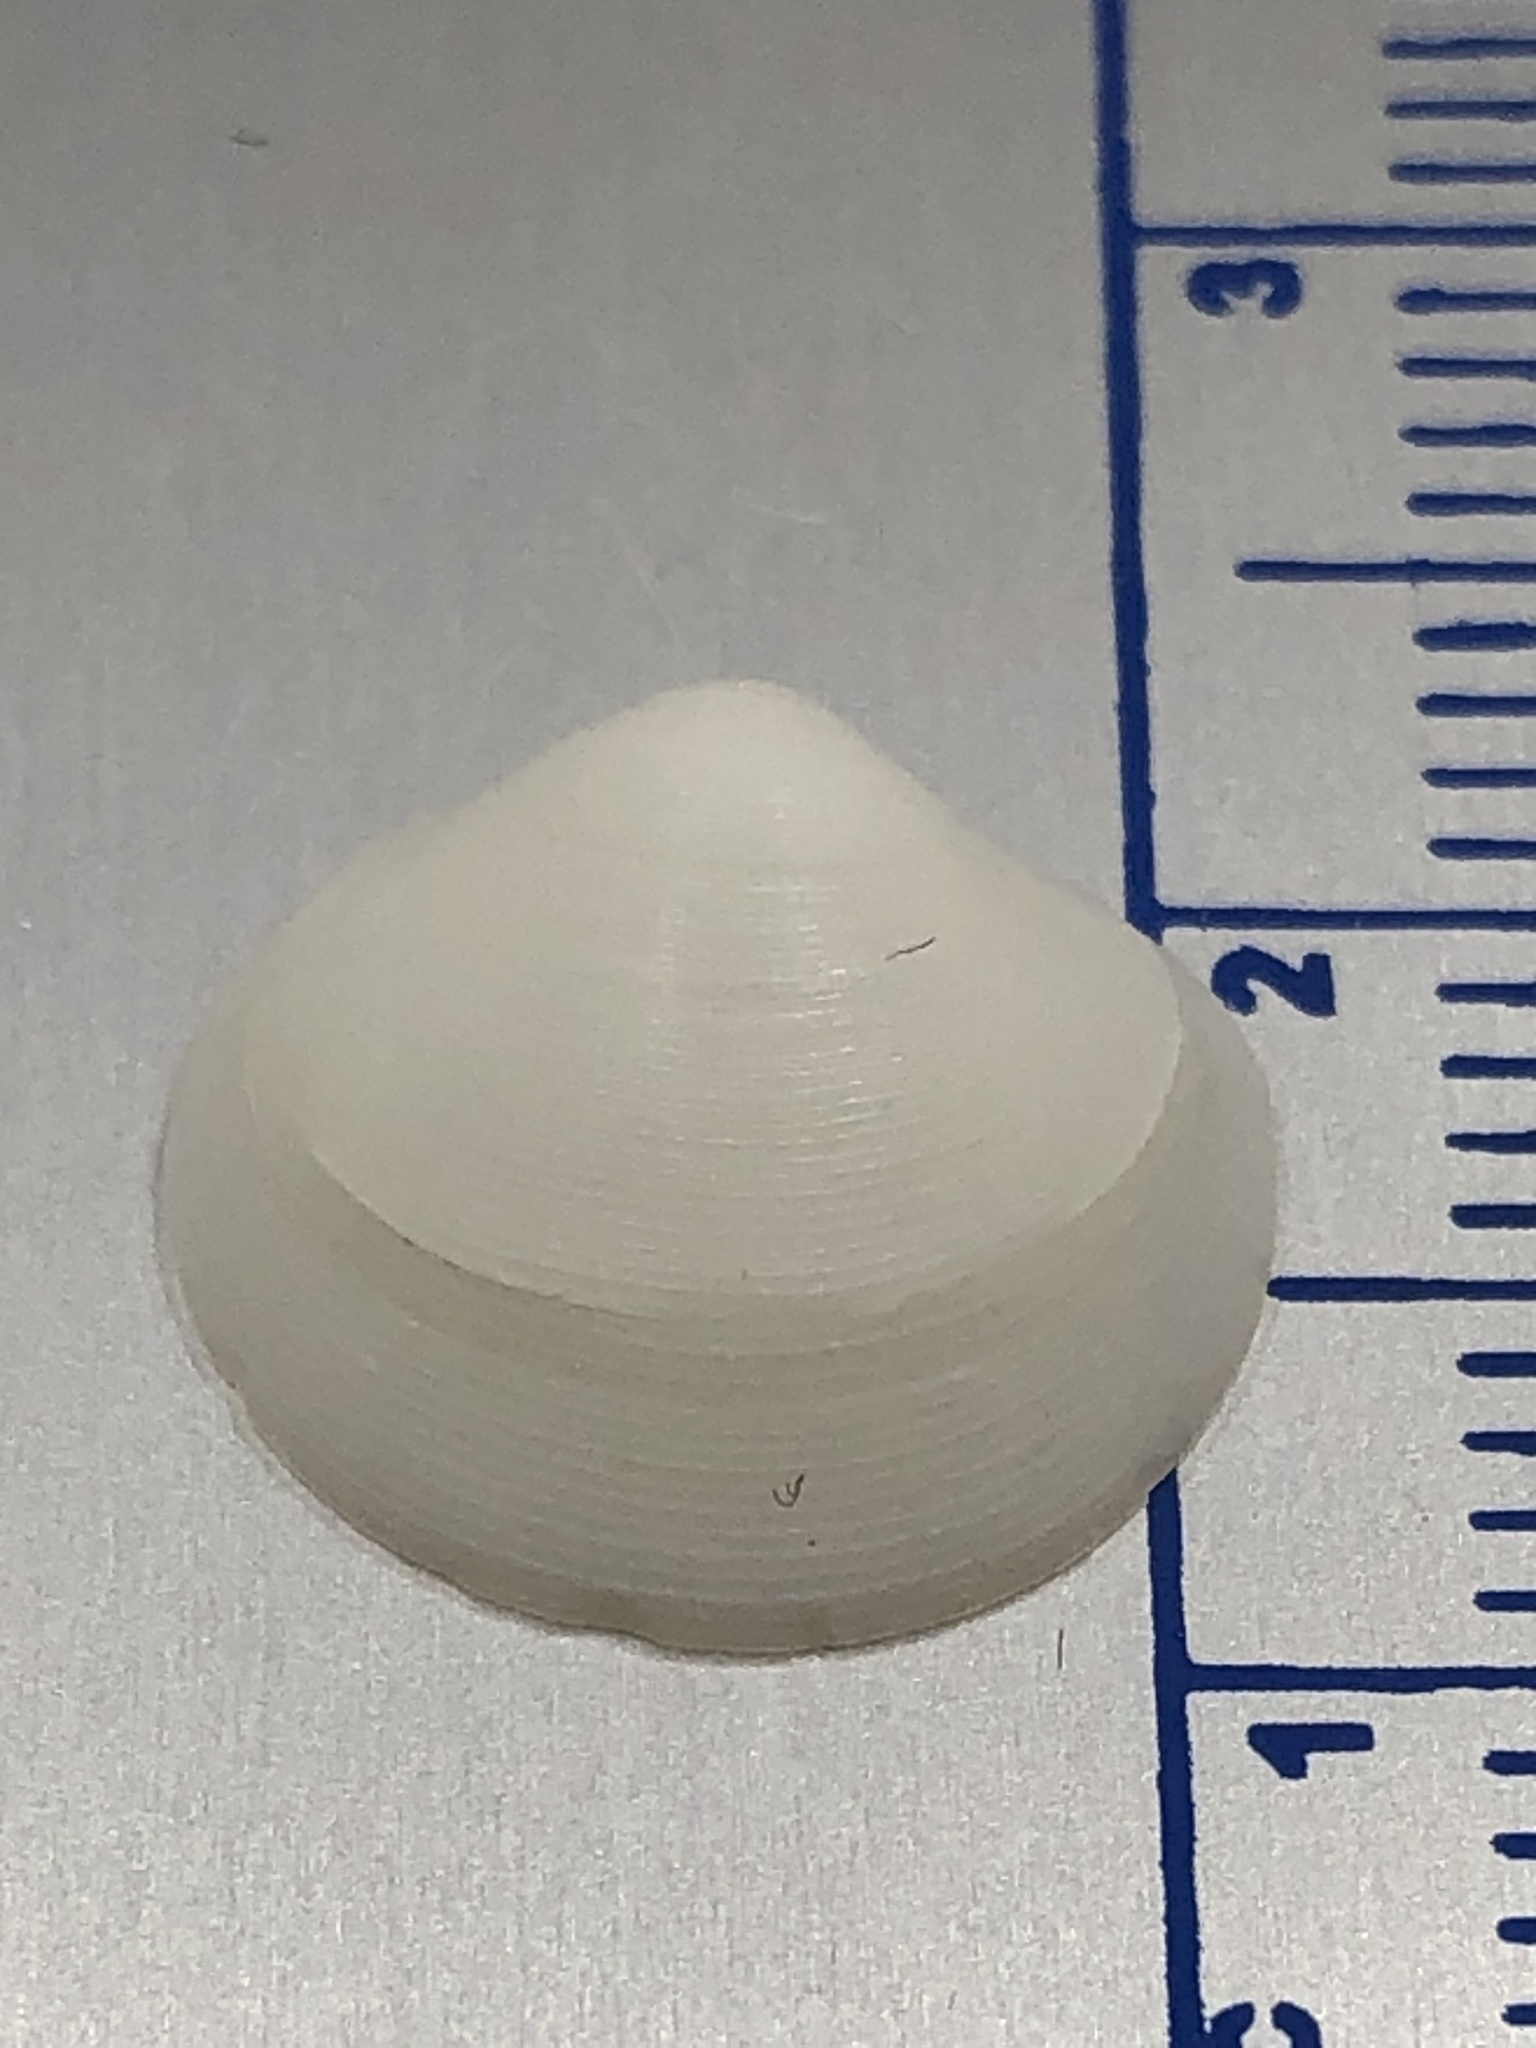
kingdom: Animalia
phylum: Mollusca
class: Bivalvia
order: Lucinida
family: Lucinidae
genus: Callucina
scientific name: Callucina keenae
